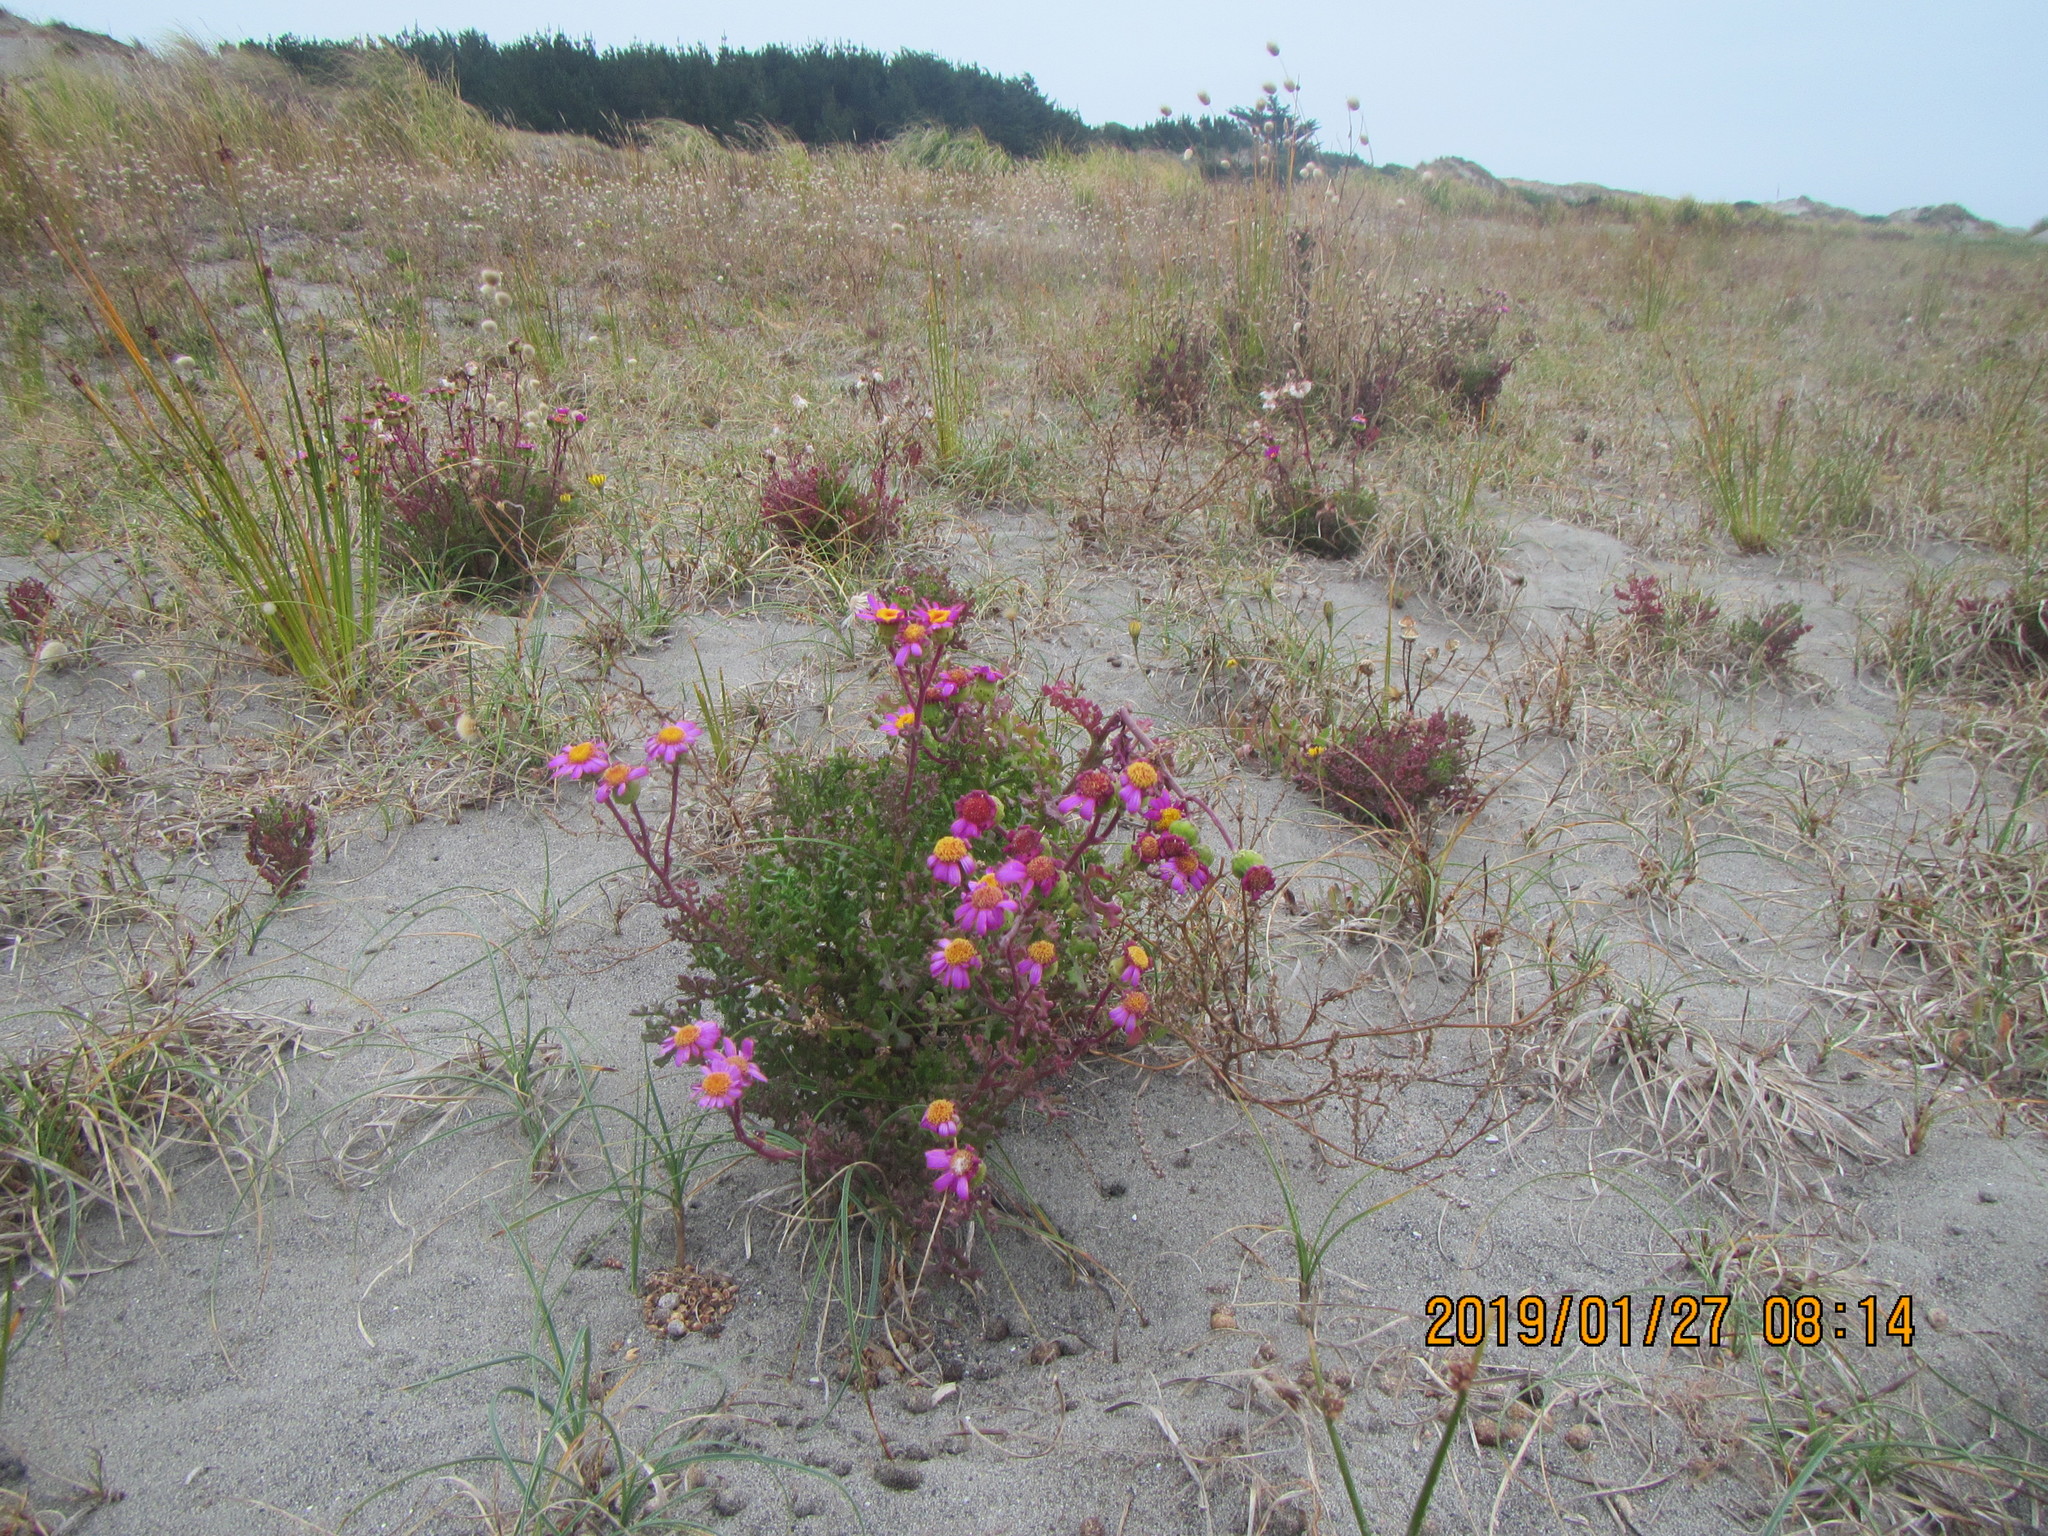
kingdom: Plantae
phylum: Tracheophyta
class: Magnoliopsida
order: Asterales
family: Asteraceae
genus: Senecio
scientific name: Senecio elegans
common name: Purple groundsel
